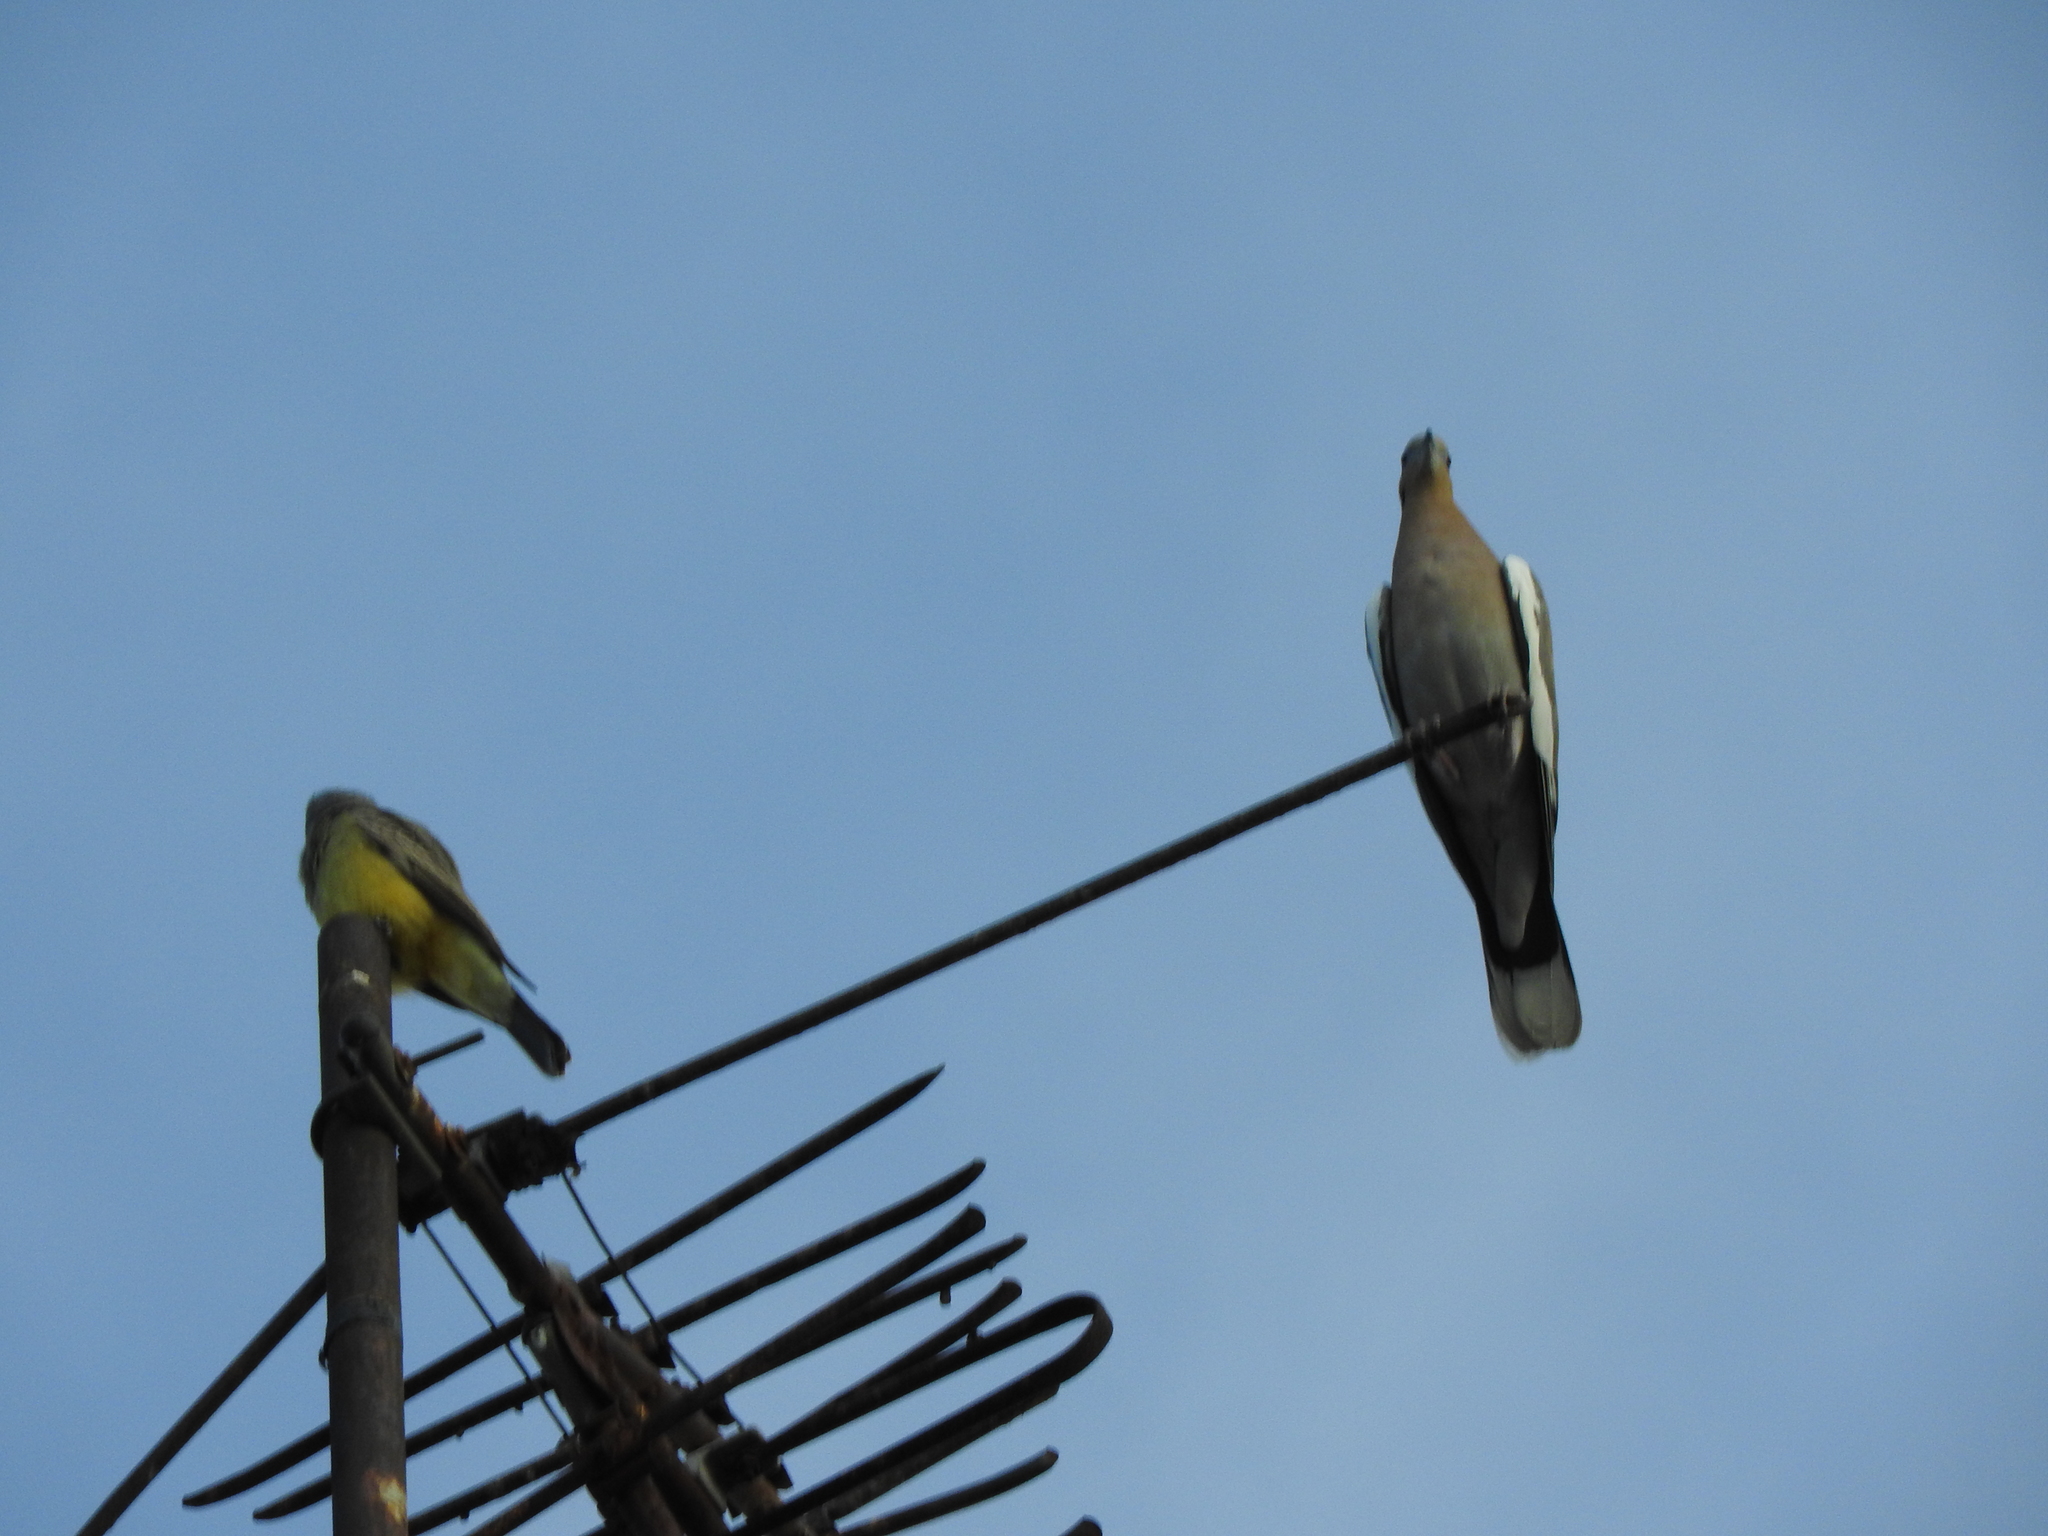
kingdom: Animalia
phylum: Chordata
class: Aves
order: Columbiformes
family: Columbidae
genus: Zenaida
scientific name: Zenaida asiatica
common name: White-winged dove
